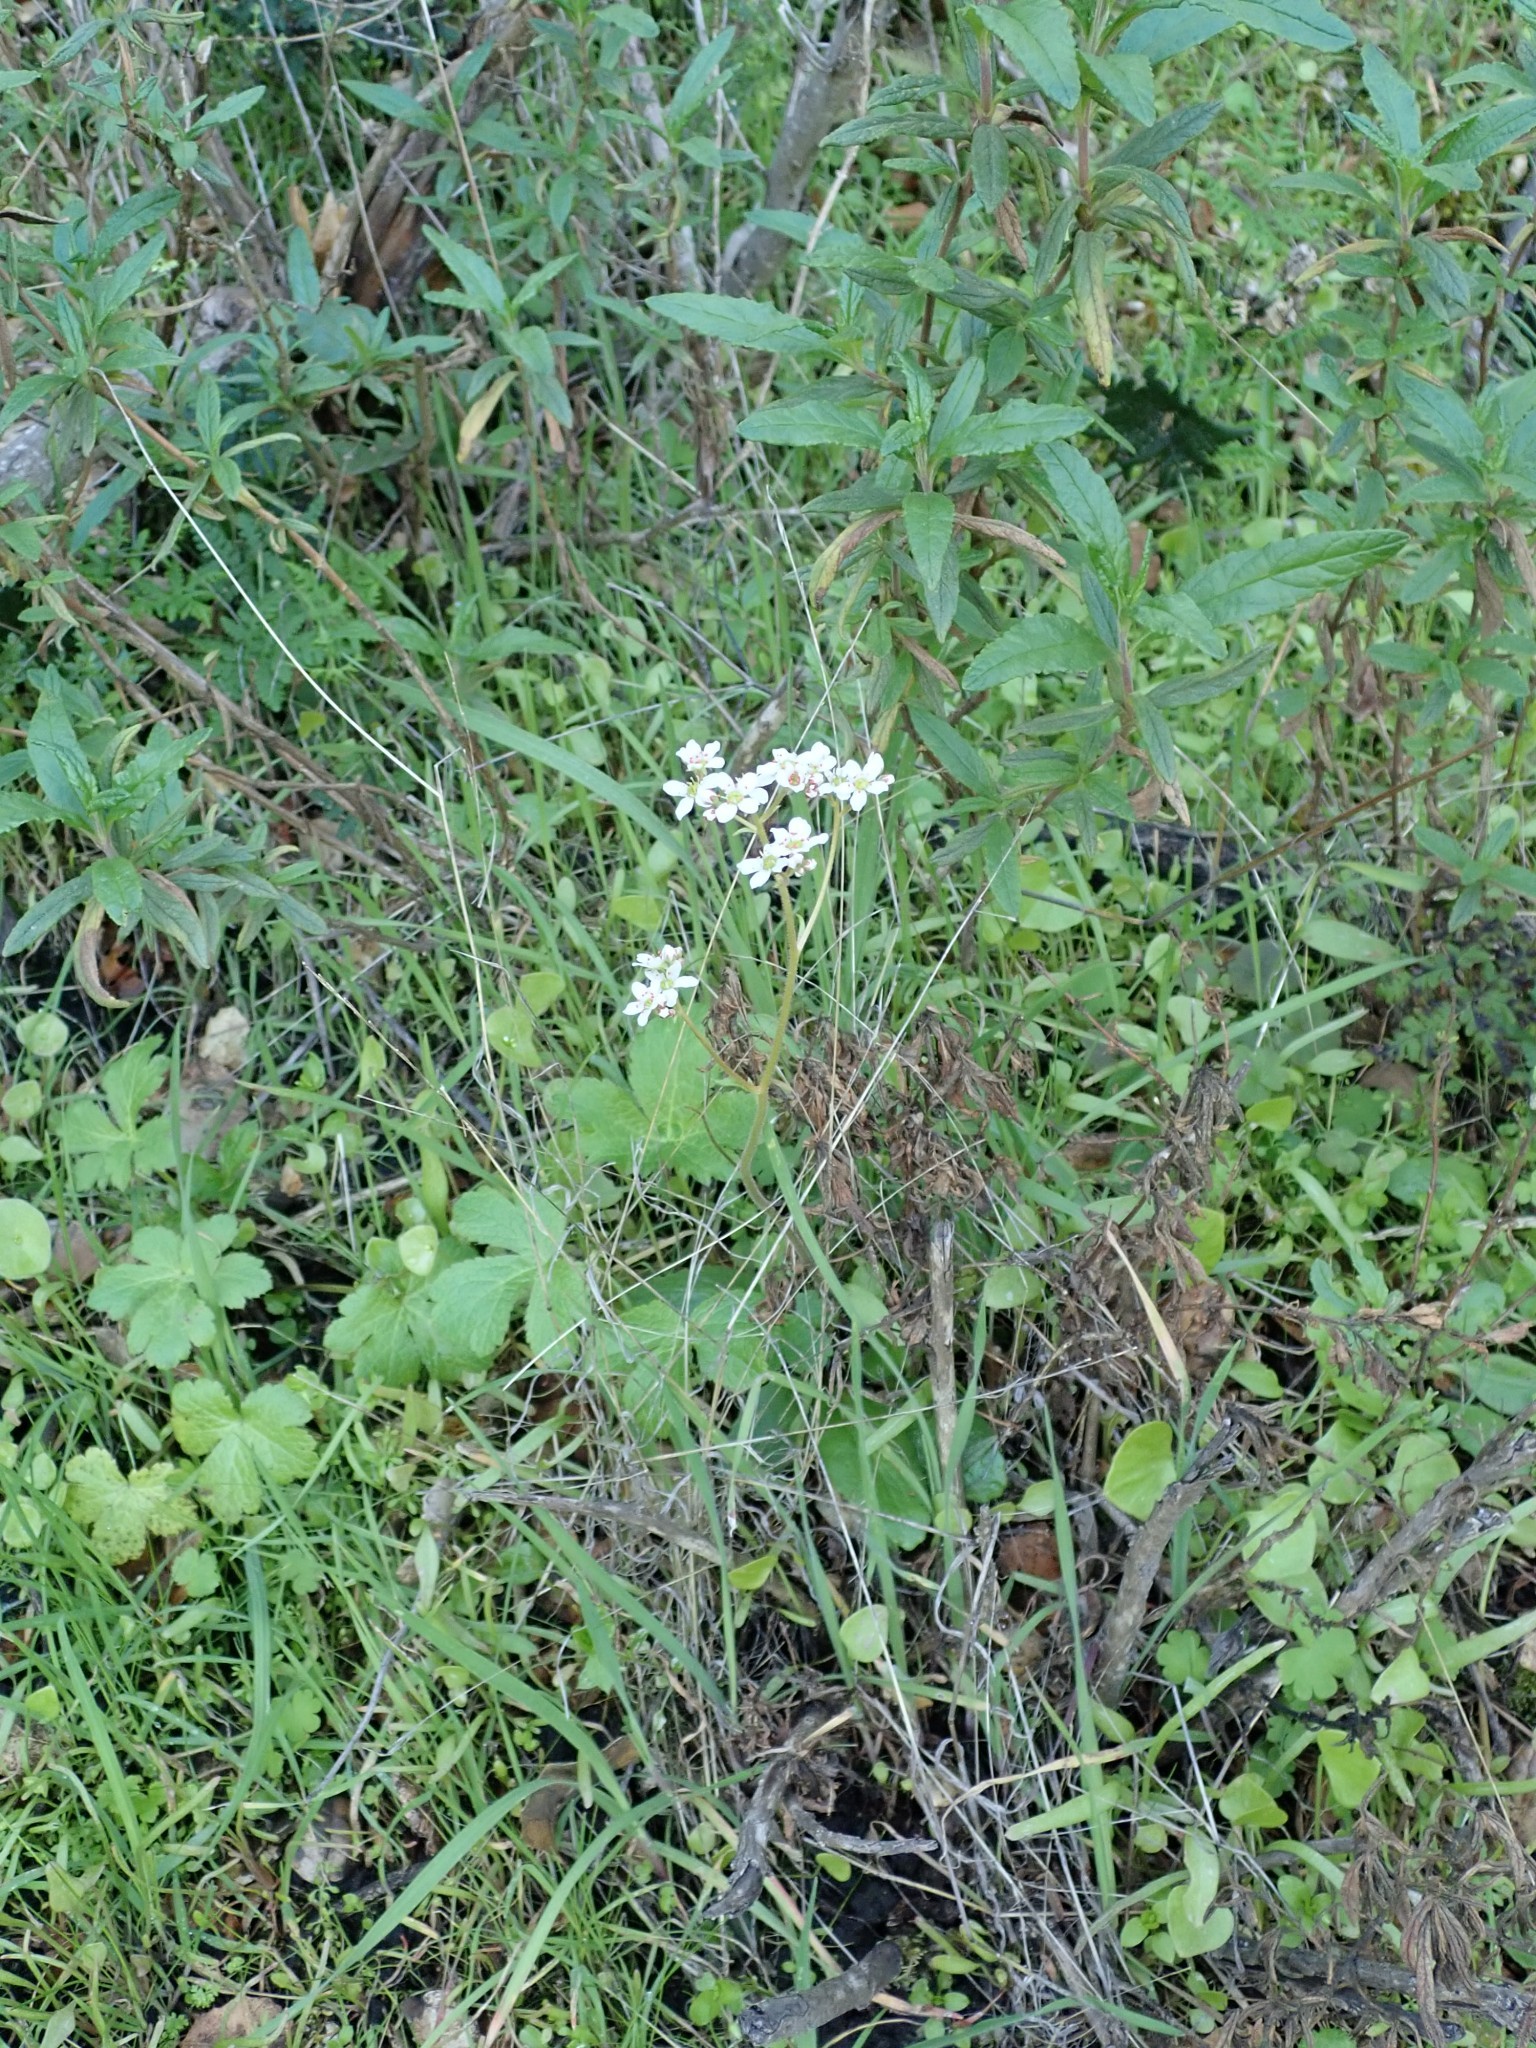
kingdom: Plantae
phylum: Tracheophyta
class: Magnoliopsida
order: Saxifragales
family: Saxifragaceae
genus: Micranthes
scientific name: Micranthes californica
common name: California saxifrage
